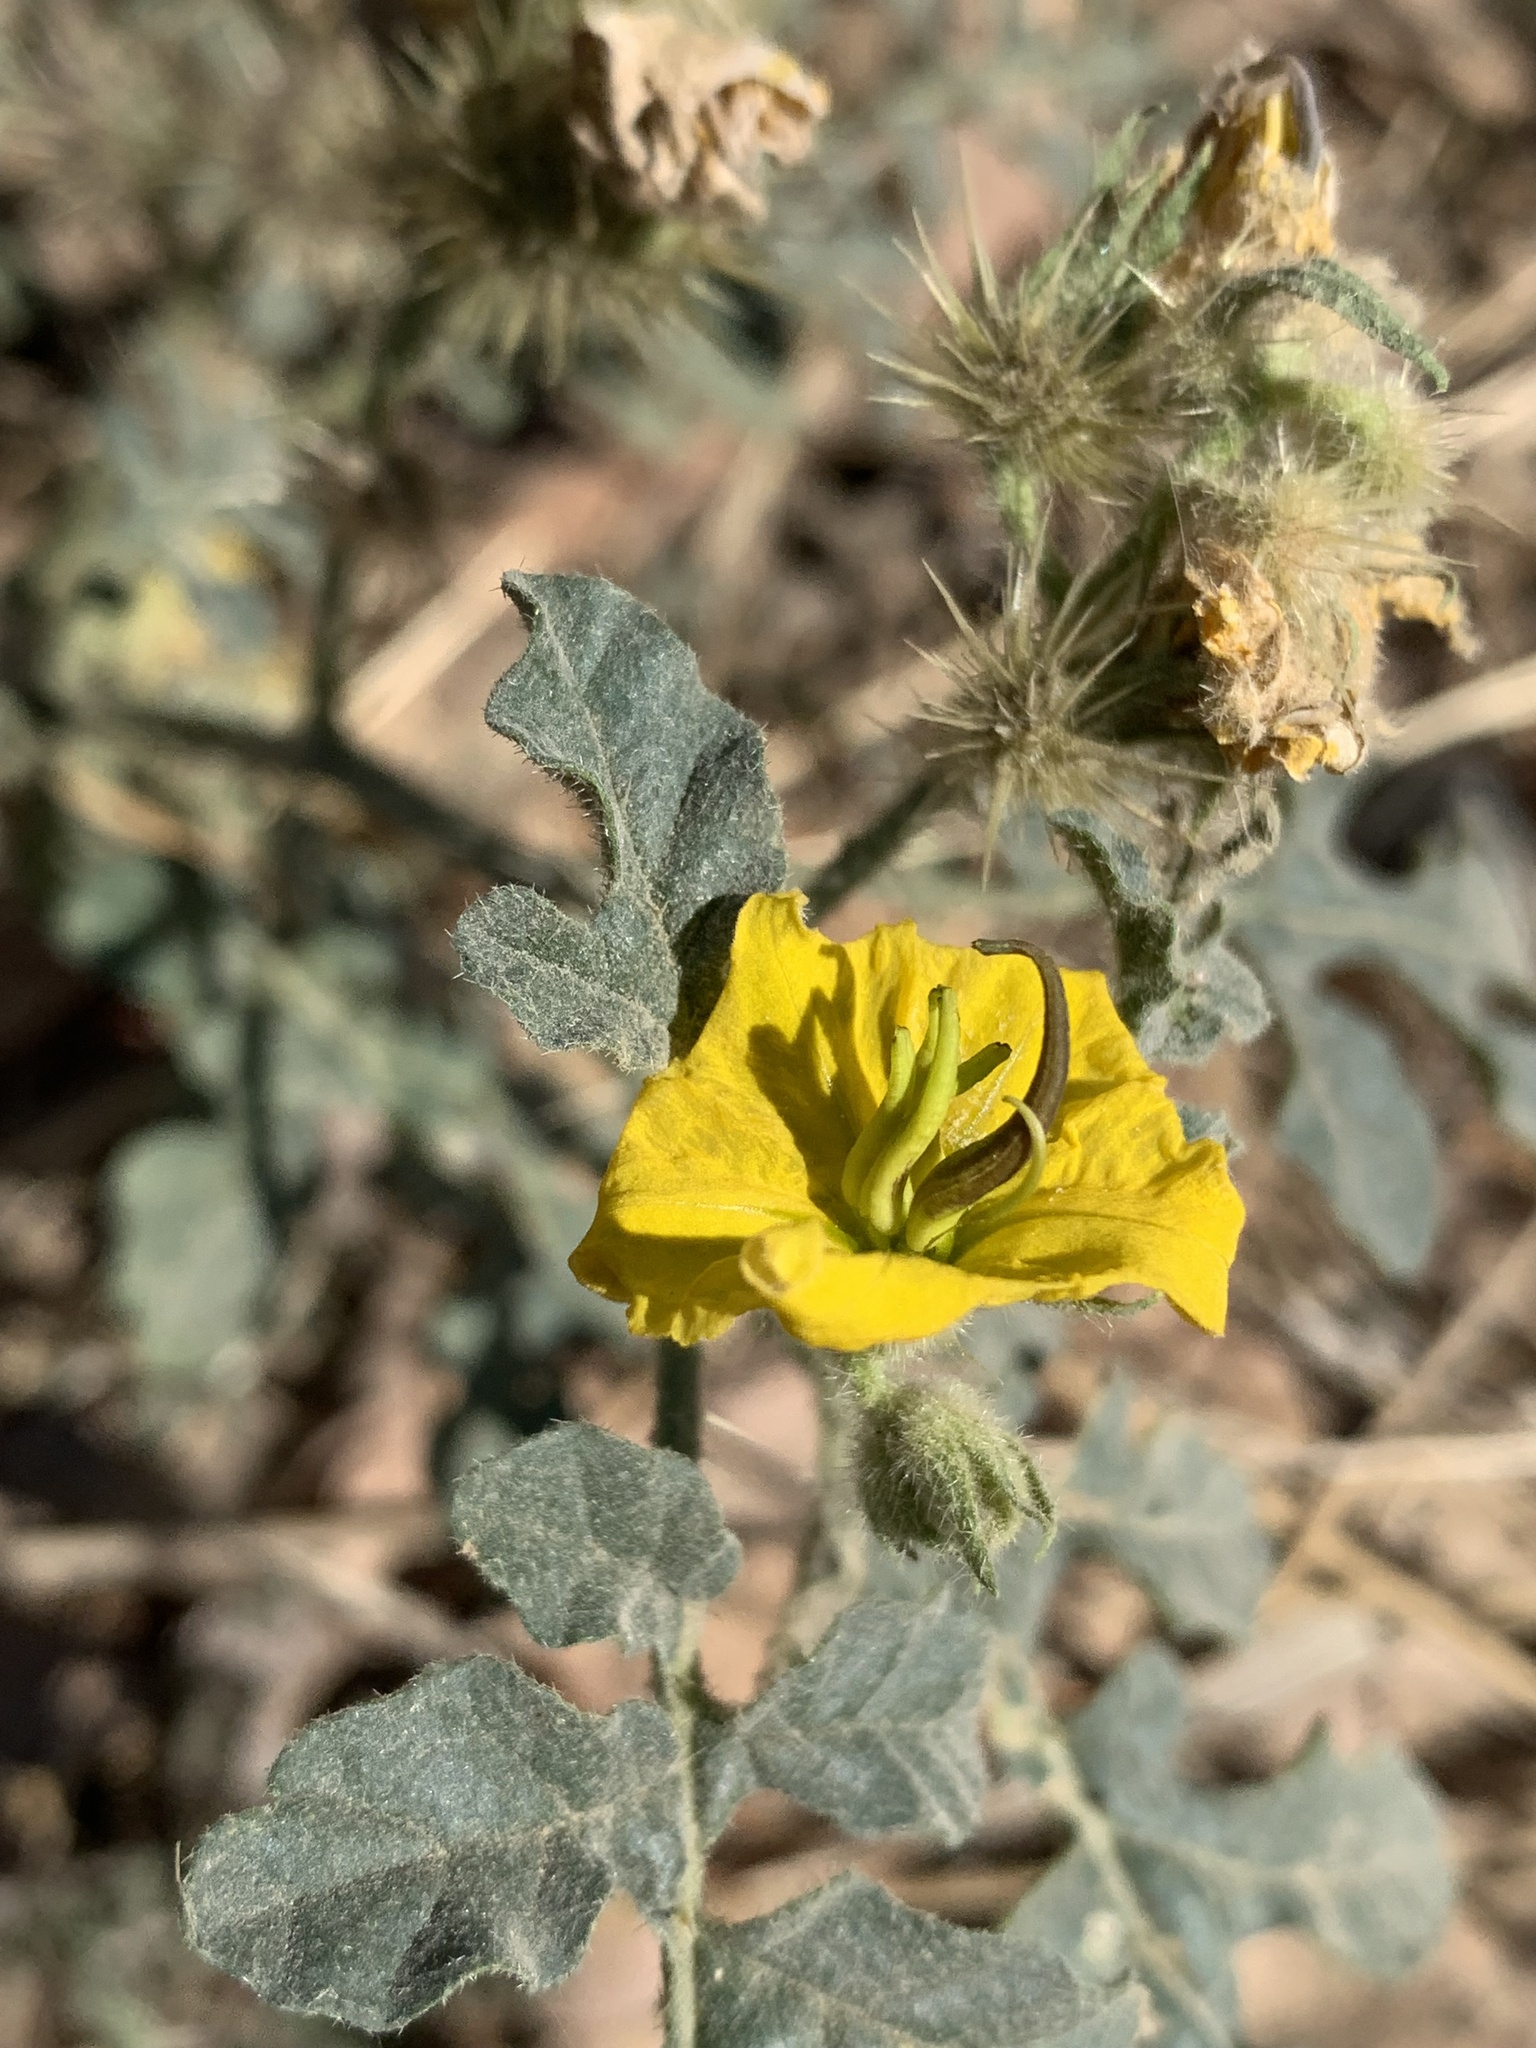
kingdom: Plantae
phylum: Tracheophyta
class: Magnoliopsida
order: Solanales
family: Solanaceae
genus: Solanum
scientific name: Solanum angustifolium
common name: Buffalobur nightshade
